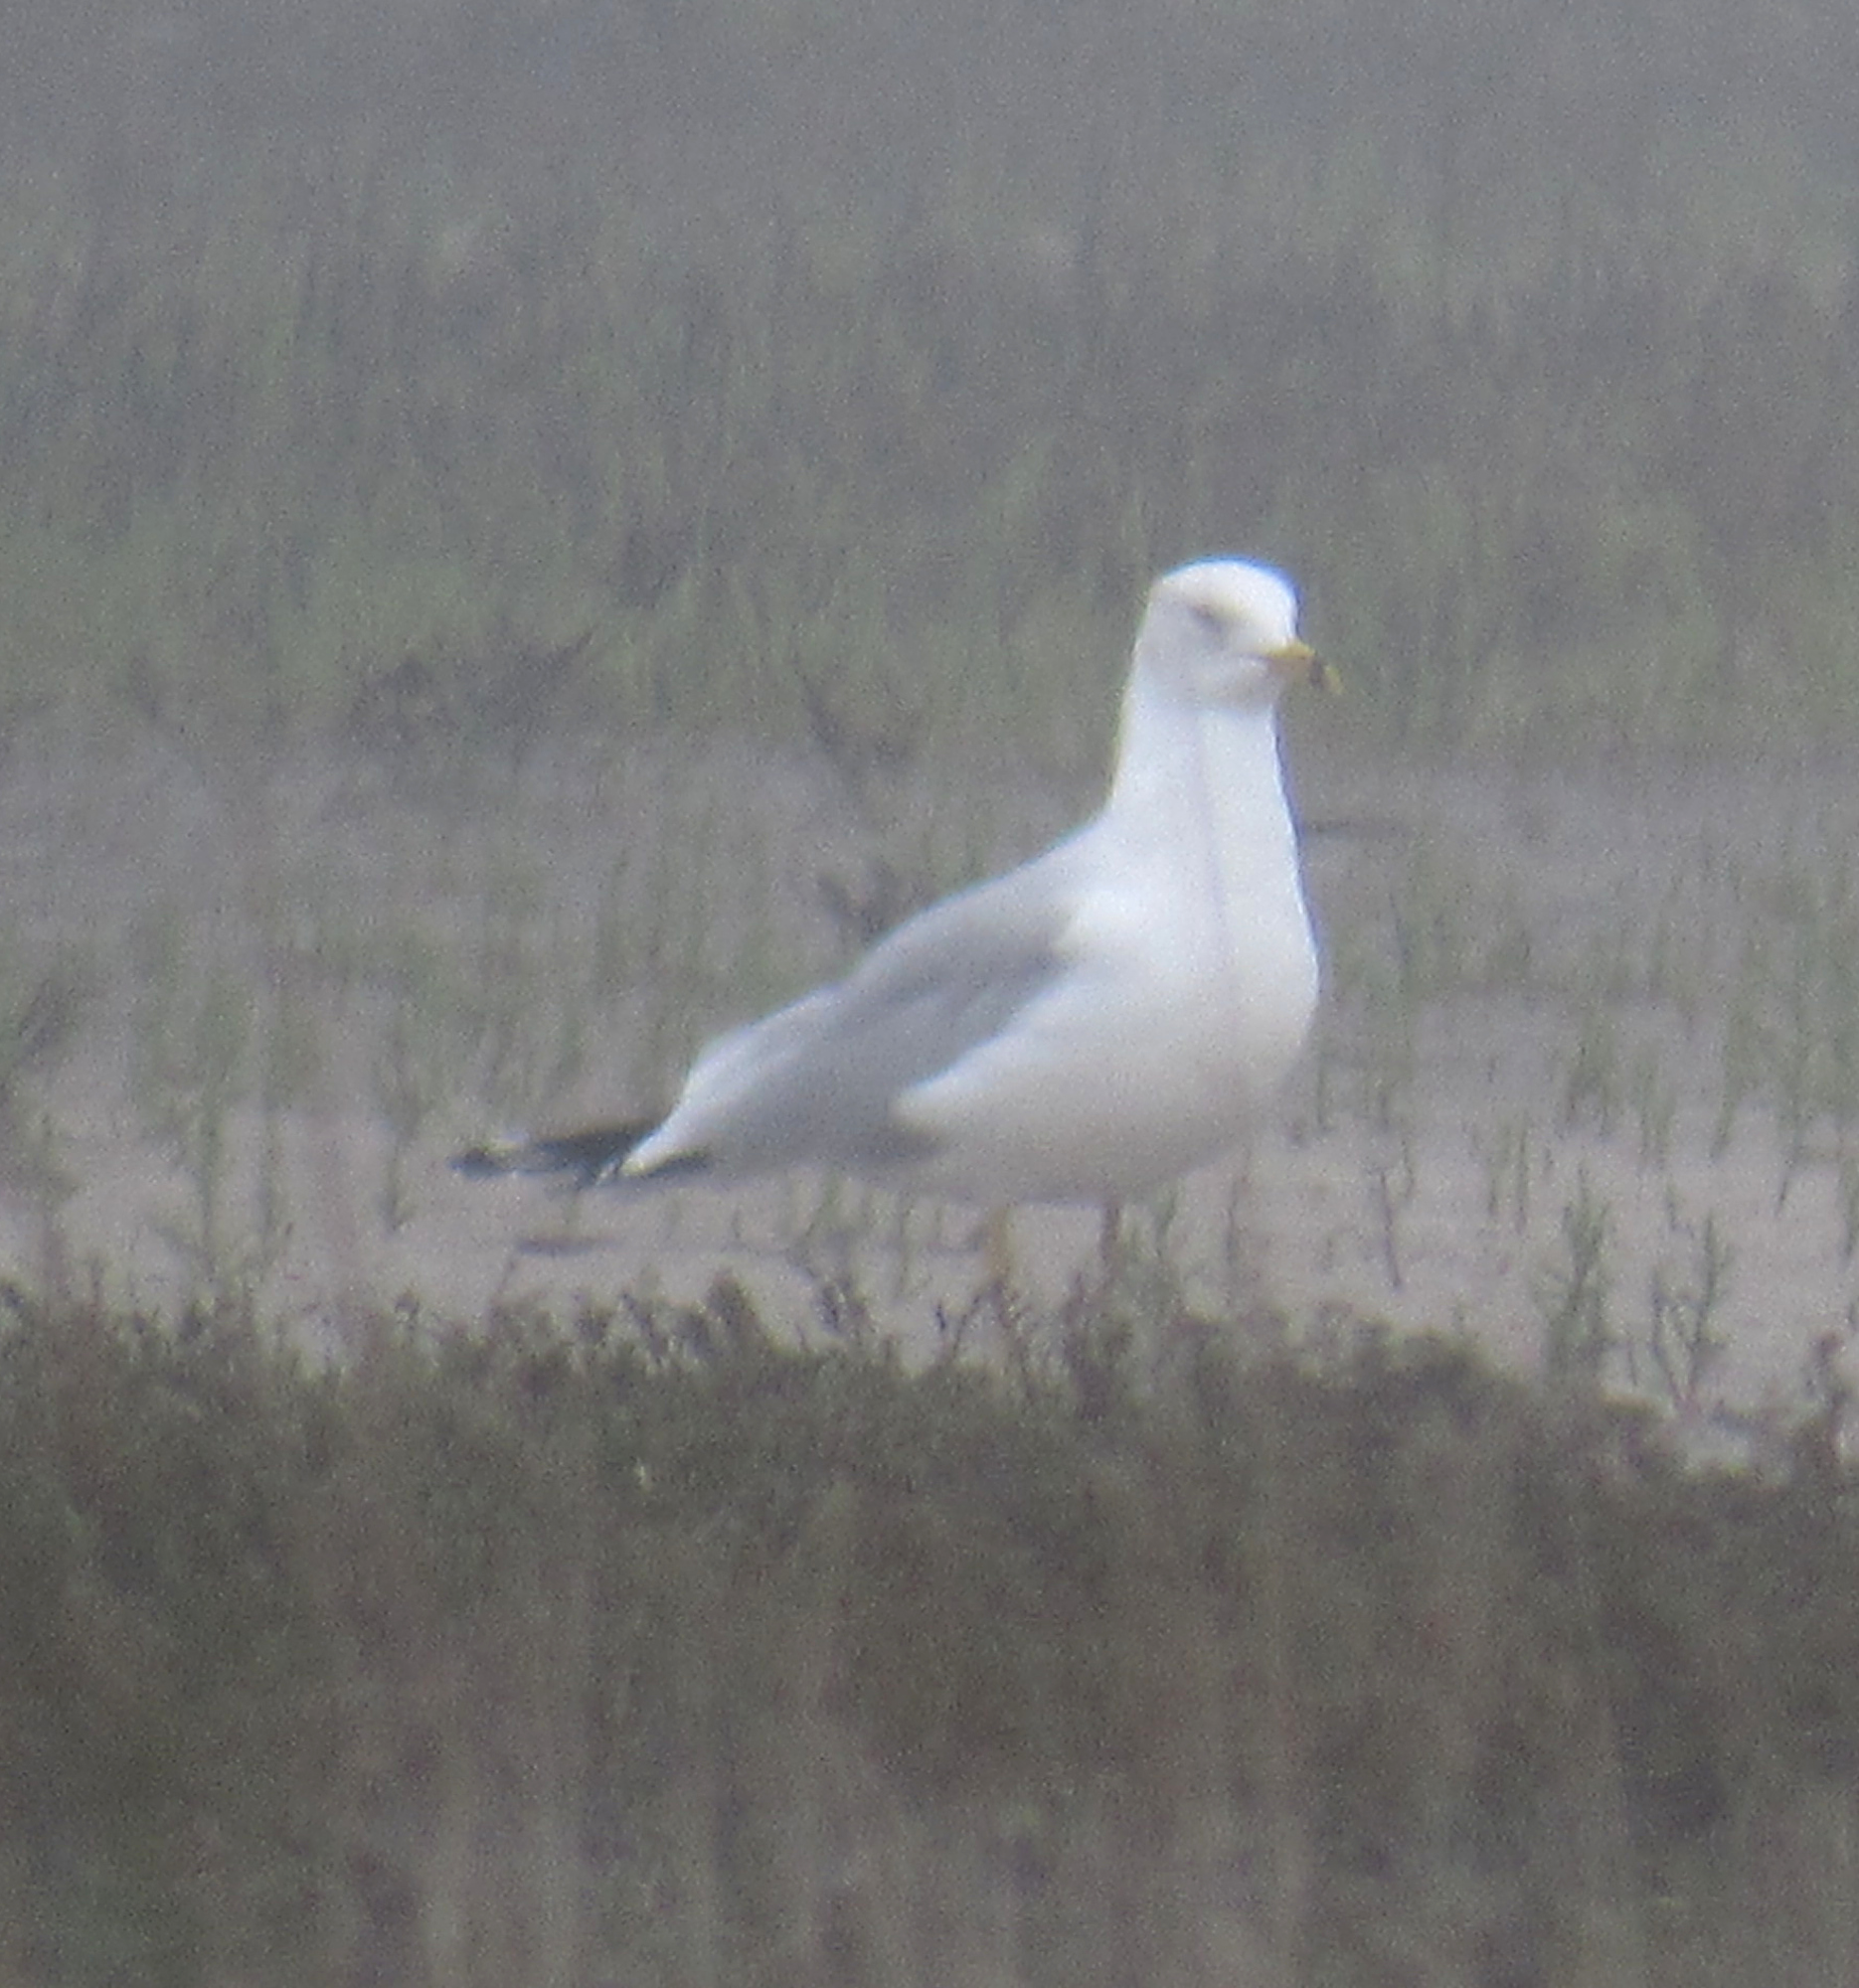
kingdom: Animalia
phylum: Chordata
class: Aves
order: Charadriiformes
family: Laridae
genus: Larus
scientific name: Larus delawarensis
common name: Ring-billed gull
